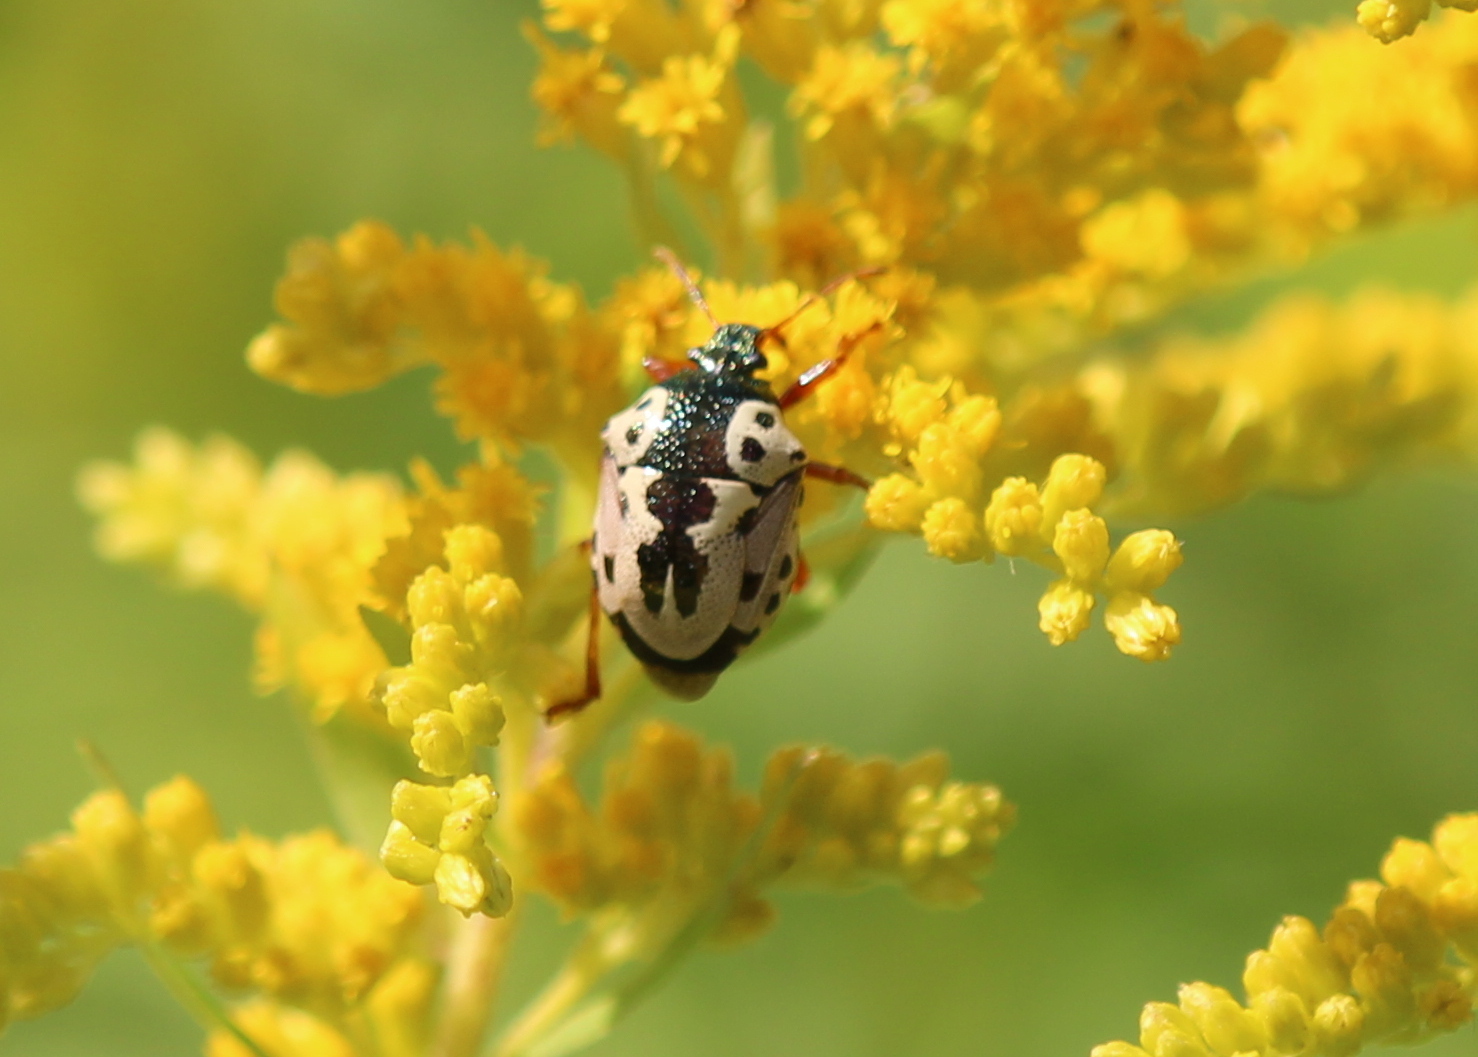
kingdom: Animalia
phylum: Arthropoda
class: Insecta
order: Hemiptera
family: Pentatomidae
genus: Stiretrus
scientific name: Stiretrus anchorago
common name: Anchor stink bug
